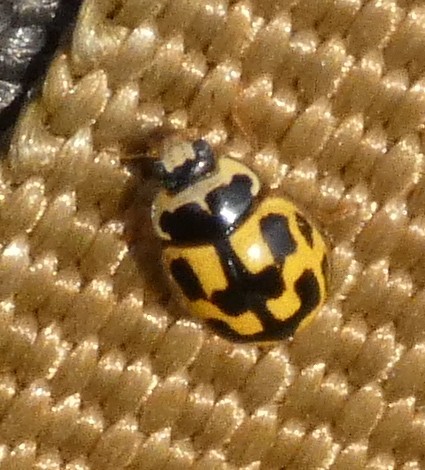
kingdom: Animalia
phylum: Arthropoda
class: Insecta
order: Coleoptera
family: Coccinellidae
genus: Propylaea
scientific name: Propylaea quatuordecimpunctata
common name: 14-spotted ladybird beetle
